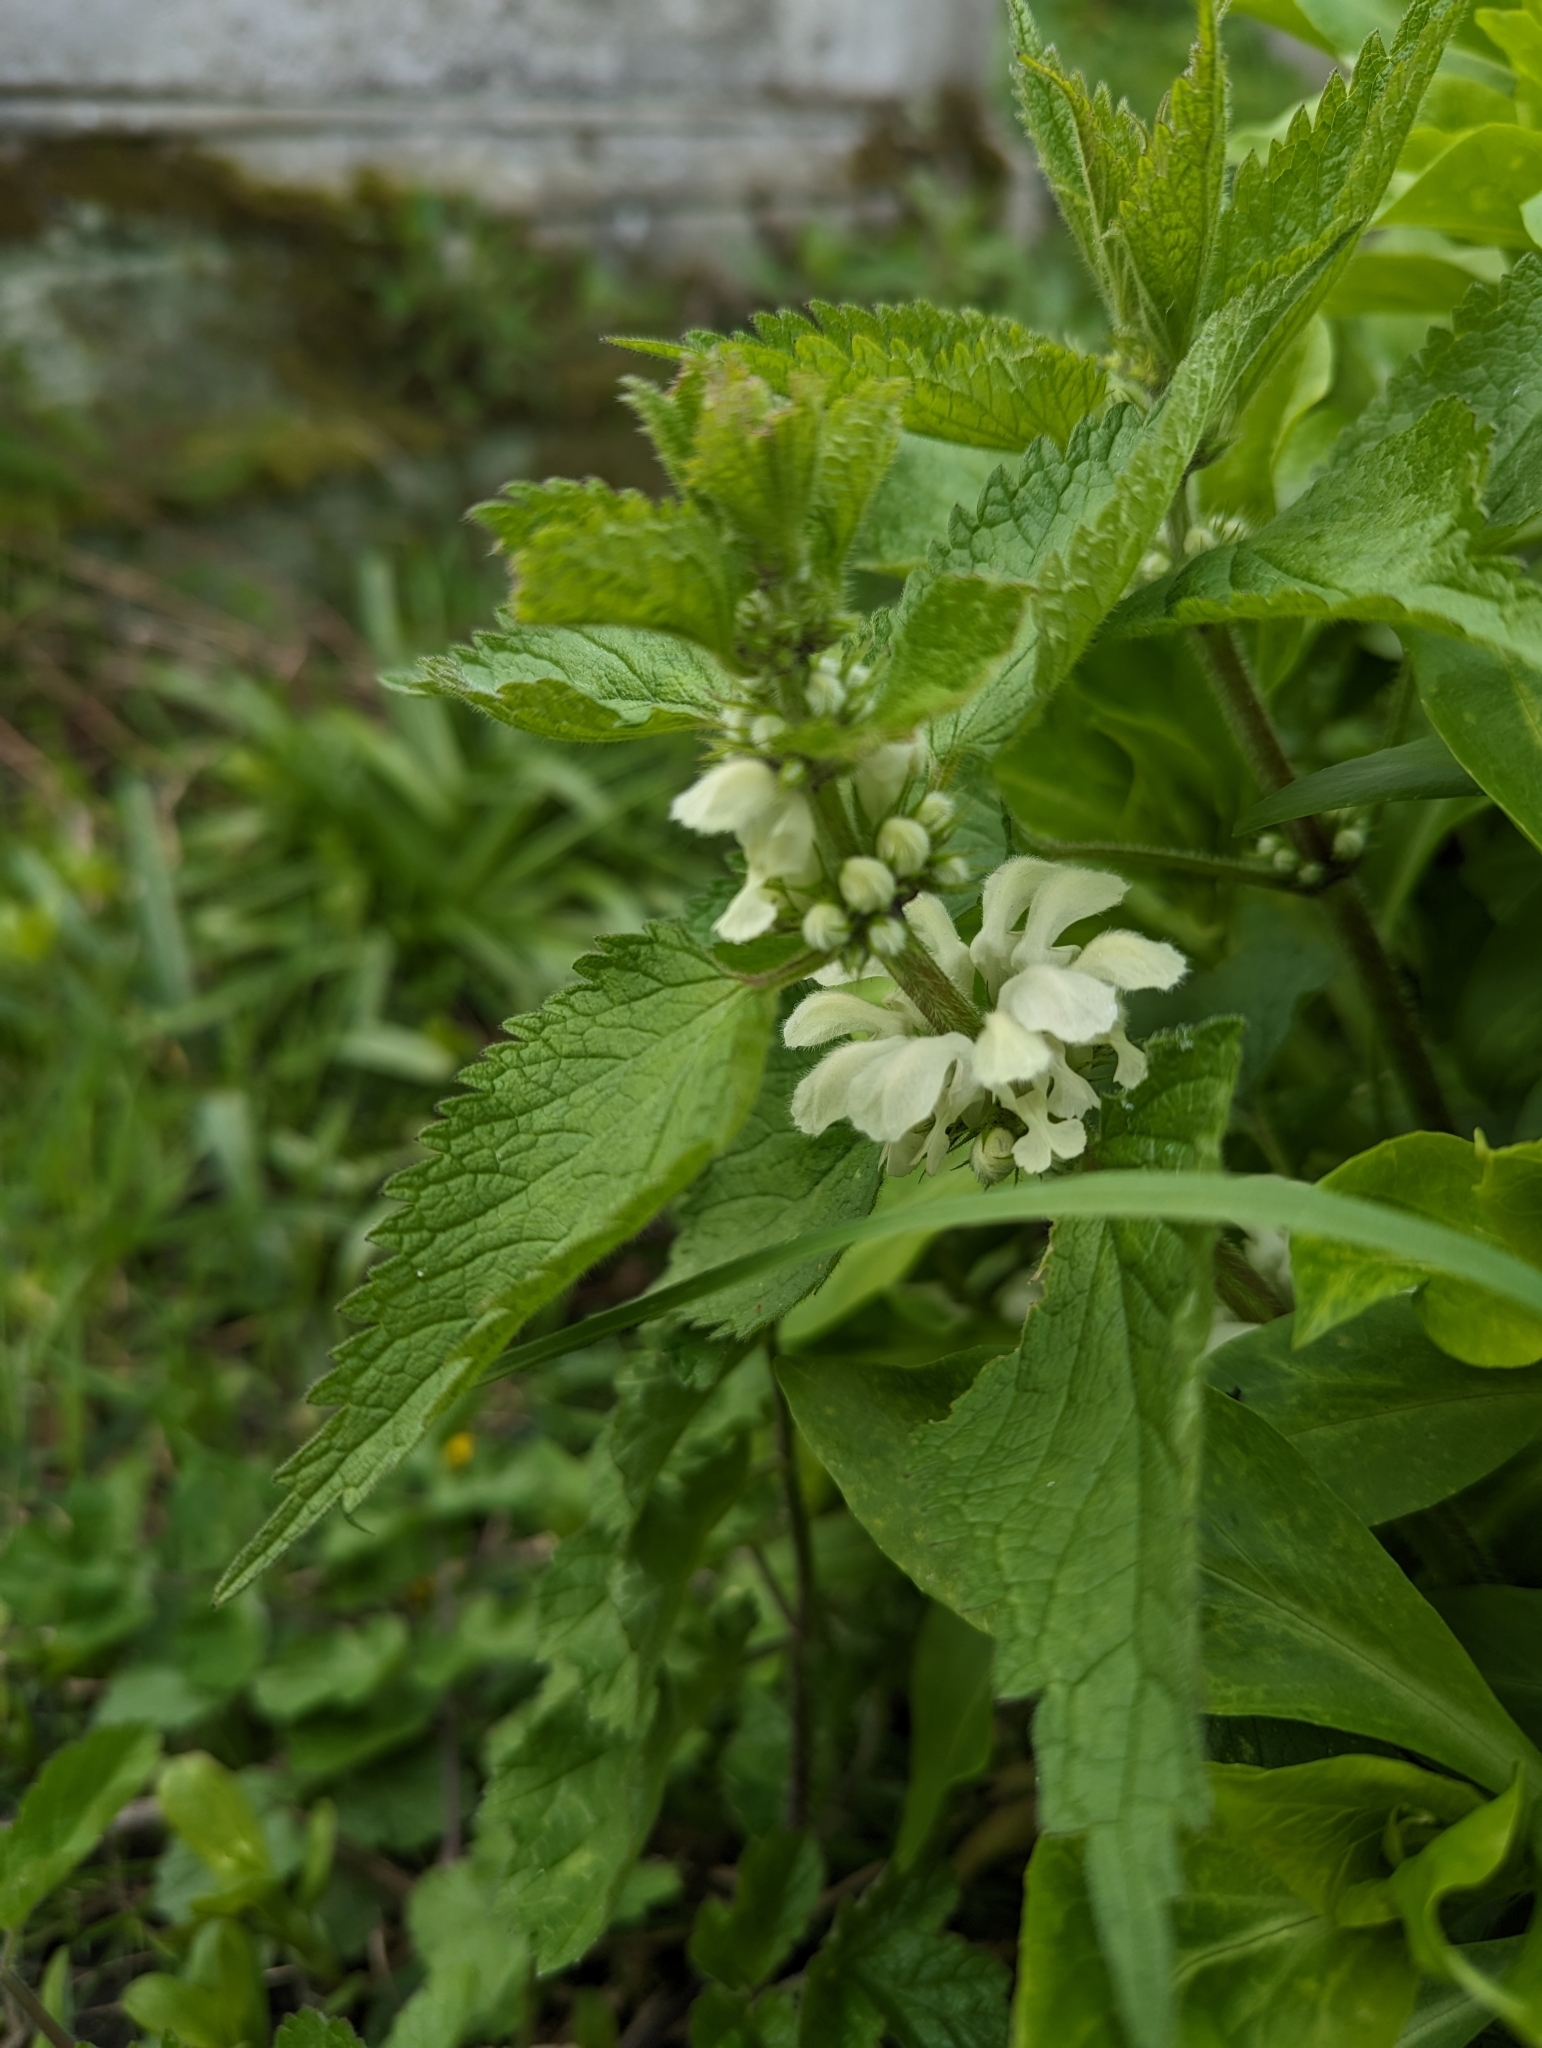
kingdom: Plantae
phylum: Tracheophyta
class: Magnoliopsida
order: Lamiales
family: Lamiaceae
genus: Lamium
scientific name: Lamium album
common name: White dead-nettle
